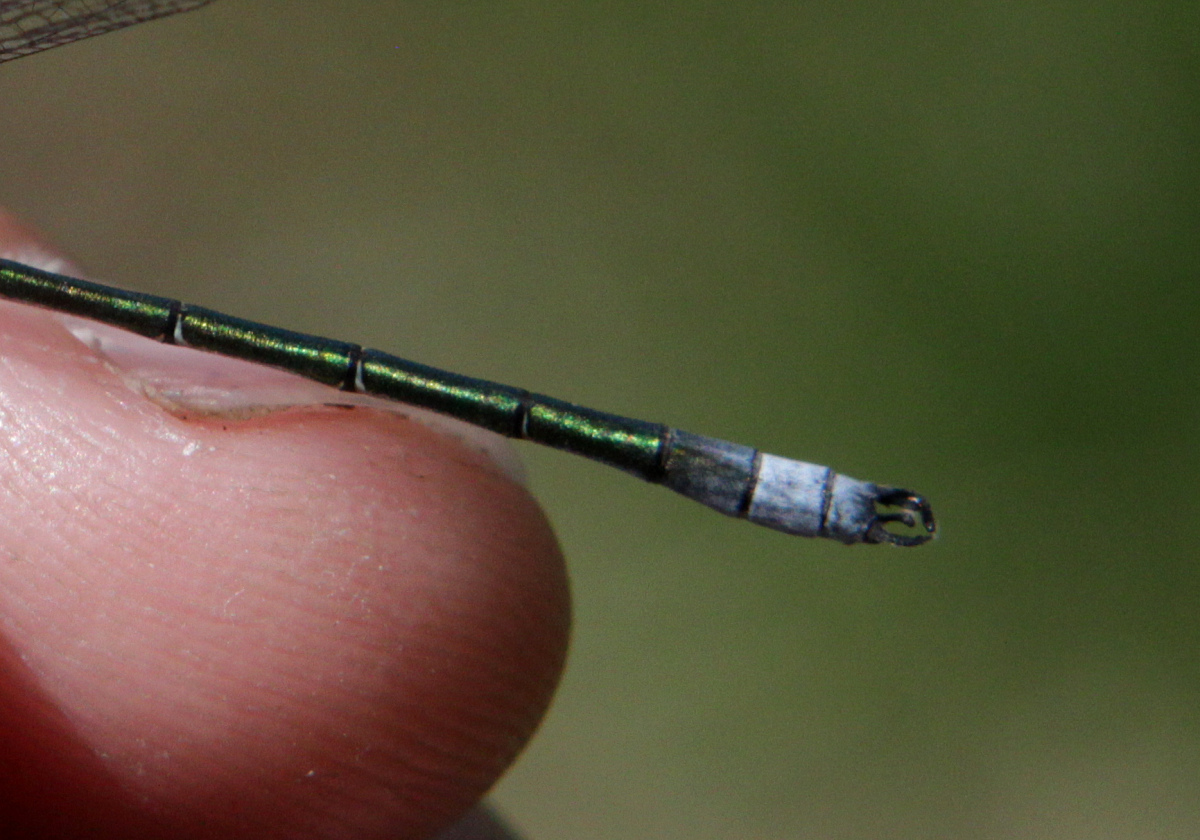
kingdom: Animalia
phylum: Arthropoda
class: Insecta
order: Odonata
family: Lestidae
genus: Lestes
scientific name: Lestes dryas
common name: Scarce emerald damselfly
